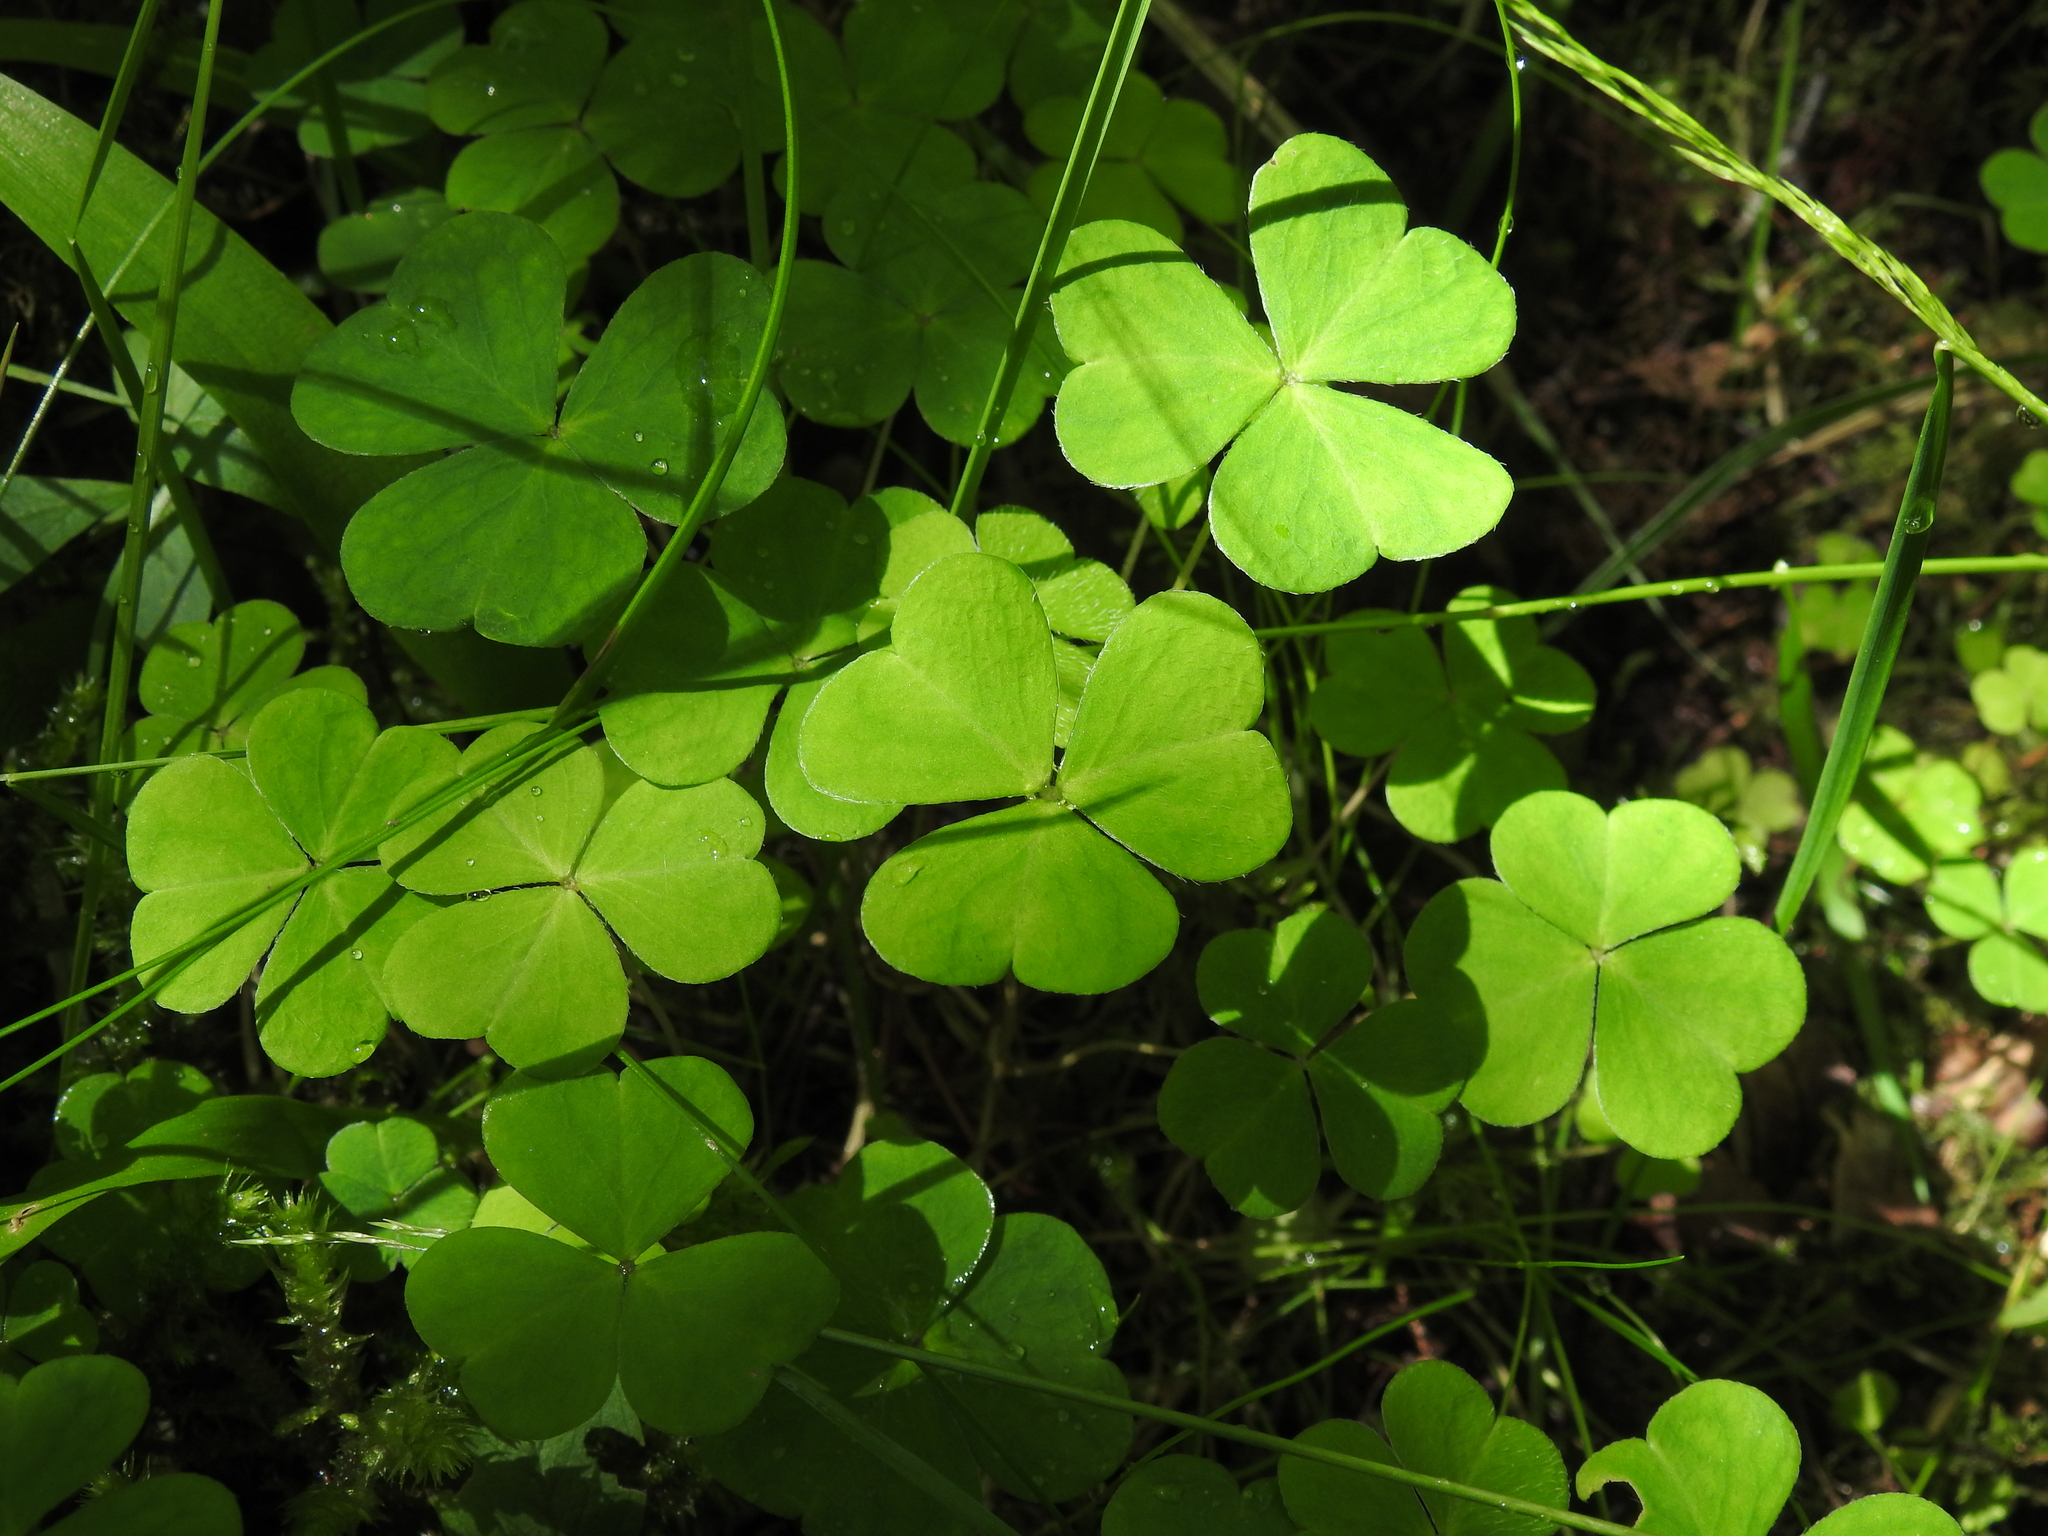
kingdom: Plantae
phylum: Tracheophyta
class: Magnoliopsida
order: Oxalidales
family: Oxalidaceae
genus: Oxalis
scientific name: Oxalis acetosella
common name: Wood-sorrel
